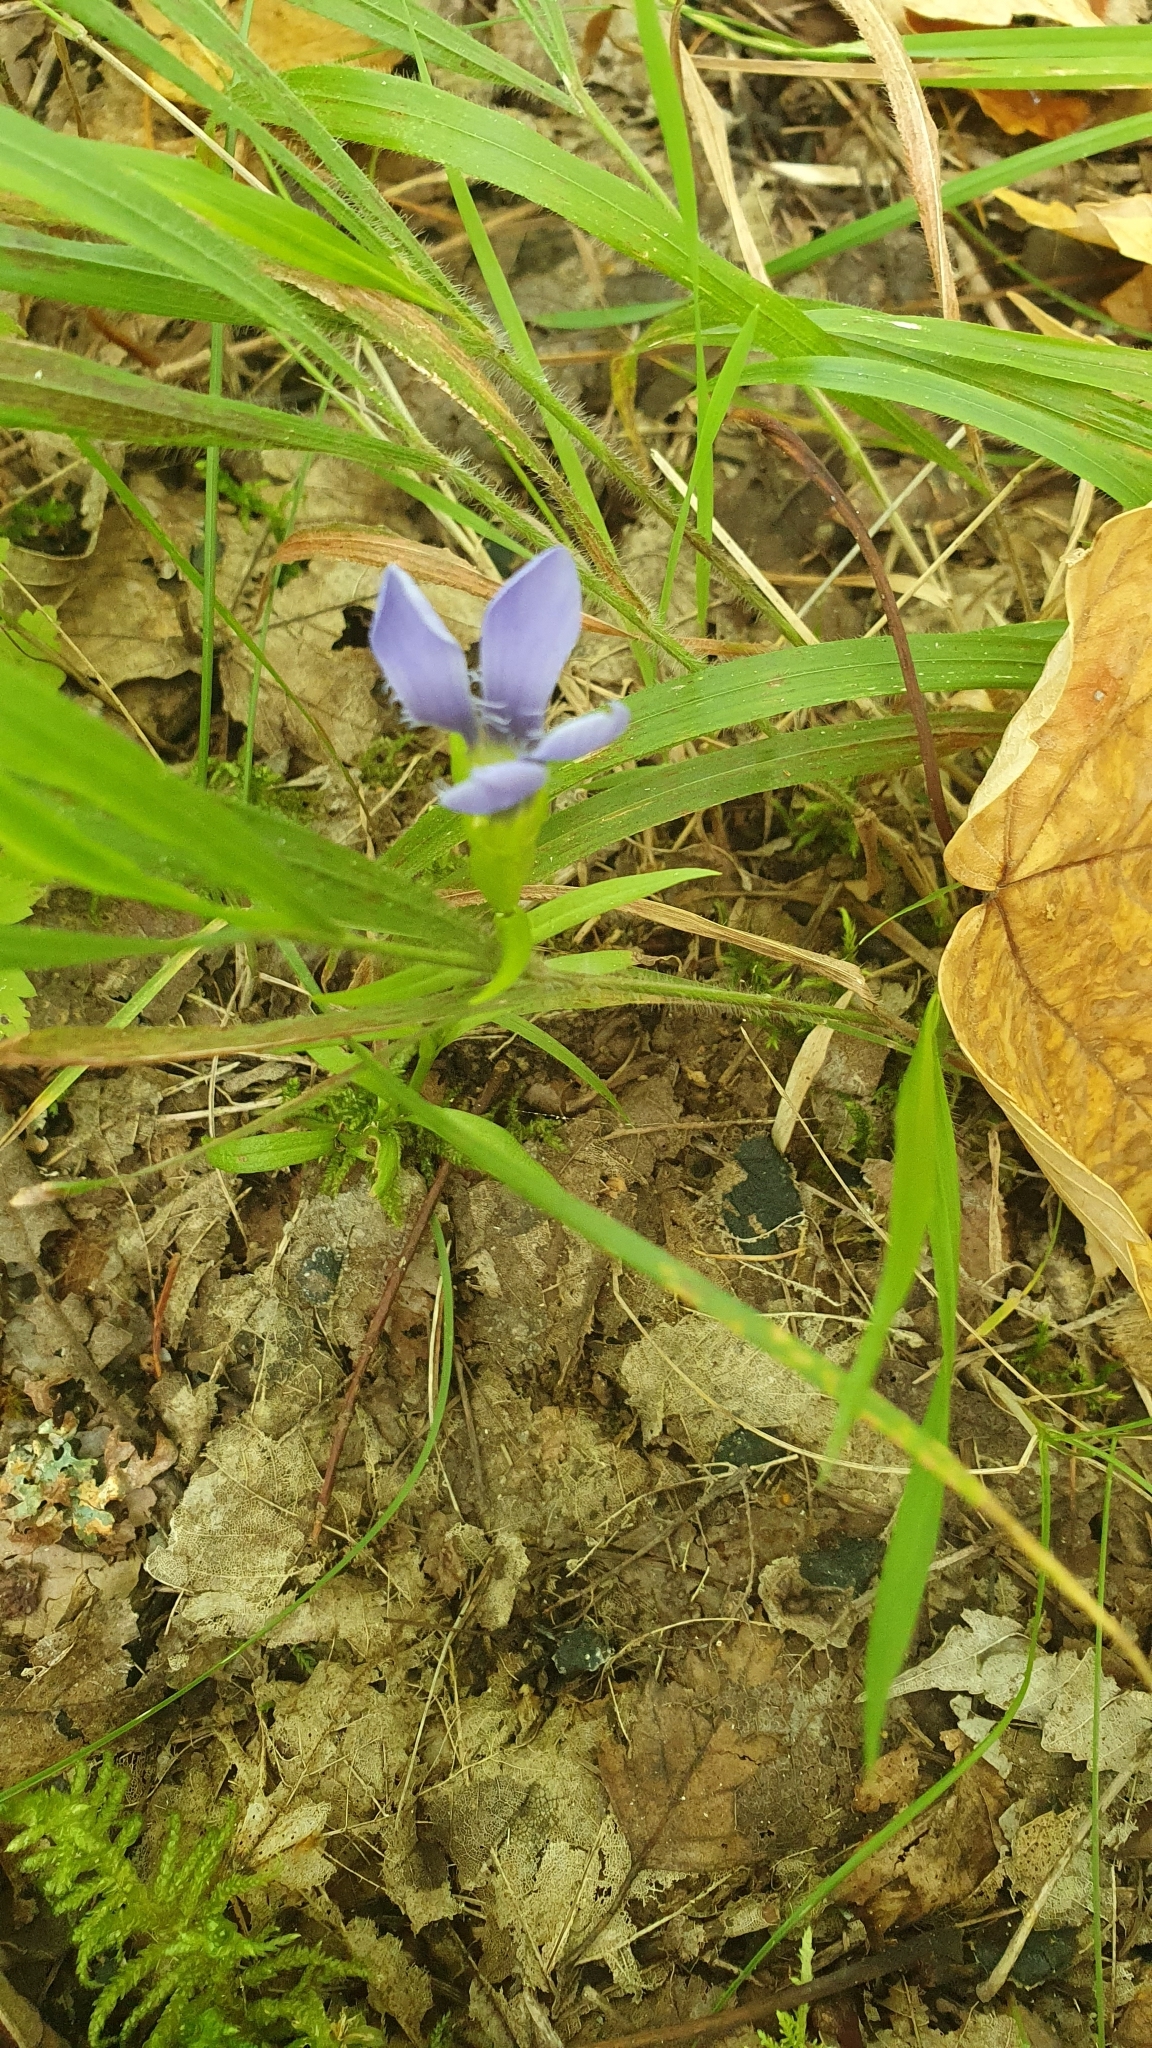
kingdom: Plantae
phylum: Tracheophyta
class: Magnoliopsida
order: Gentianales
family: Gentianaceae
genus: Gentianopsis
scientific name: Gentianopsis ciliata
